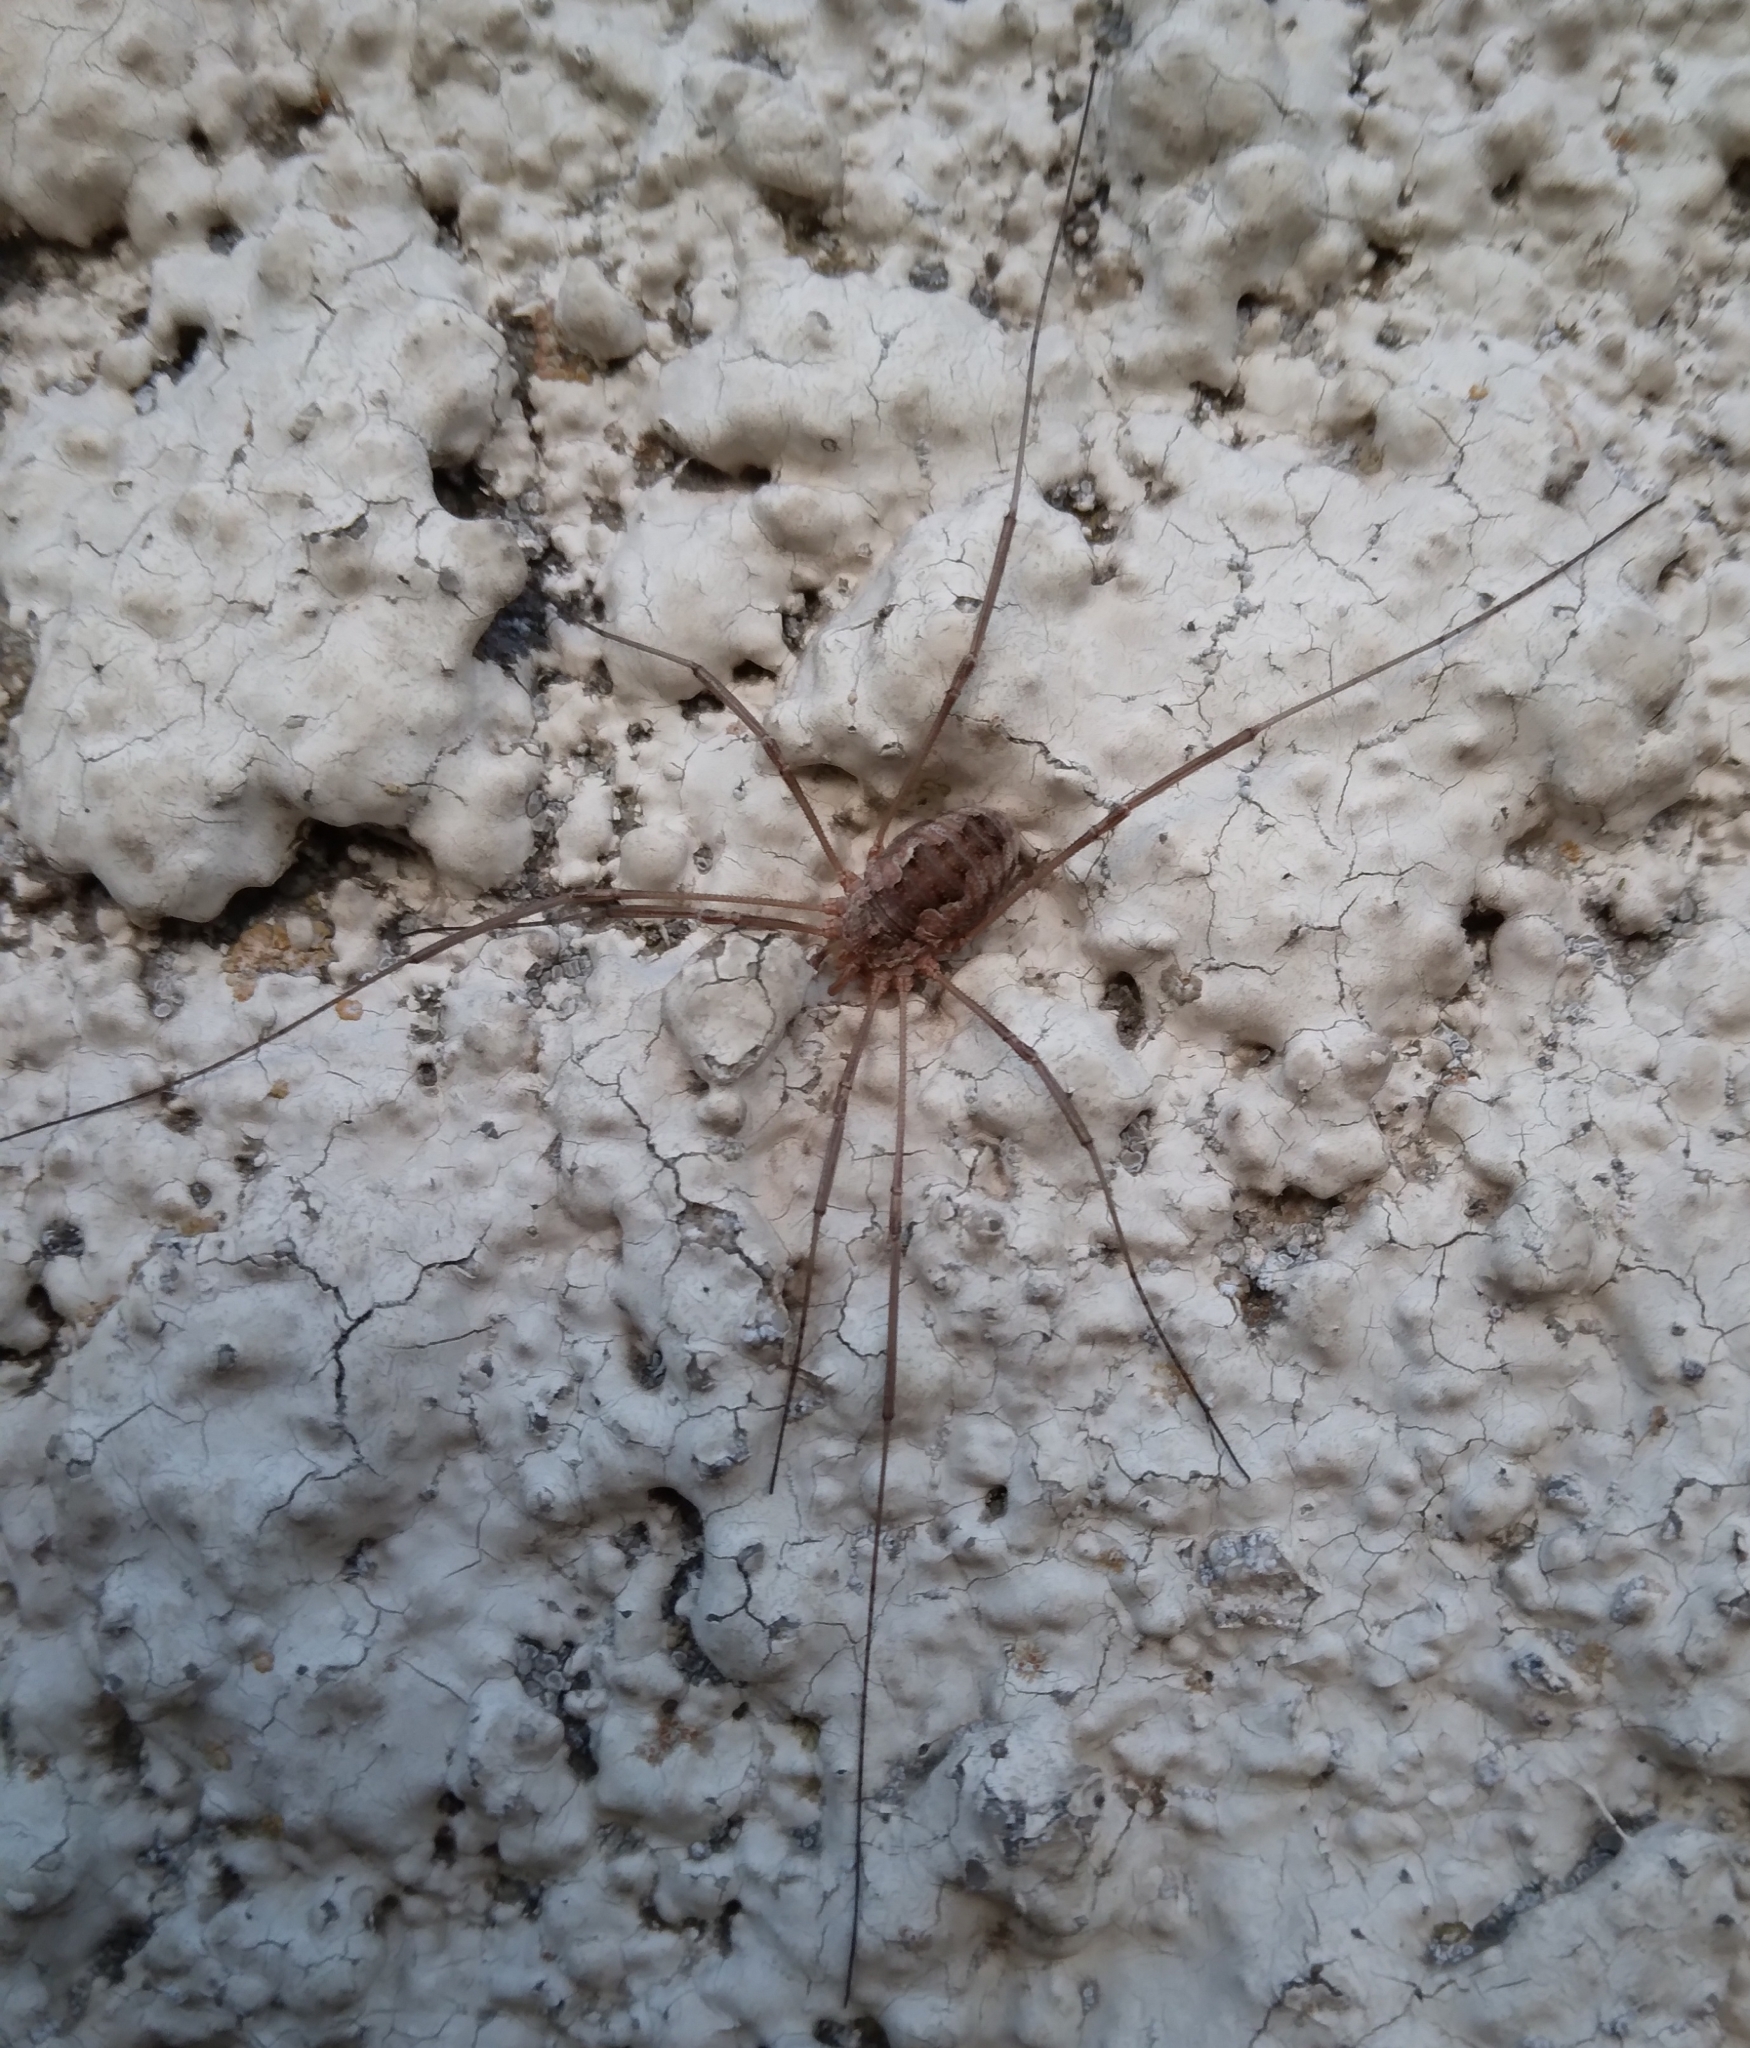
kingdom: Animalia
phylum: Arthropoda
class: Arachnida
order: Opiliones
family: Phalangiidae
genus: Phalangium
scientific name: Phalangium opilio
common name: Daddy longleg
